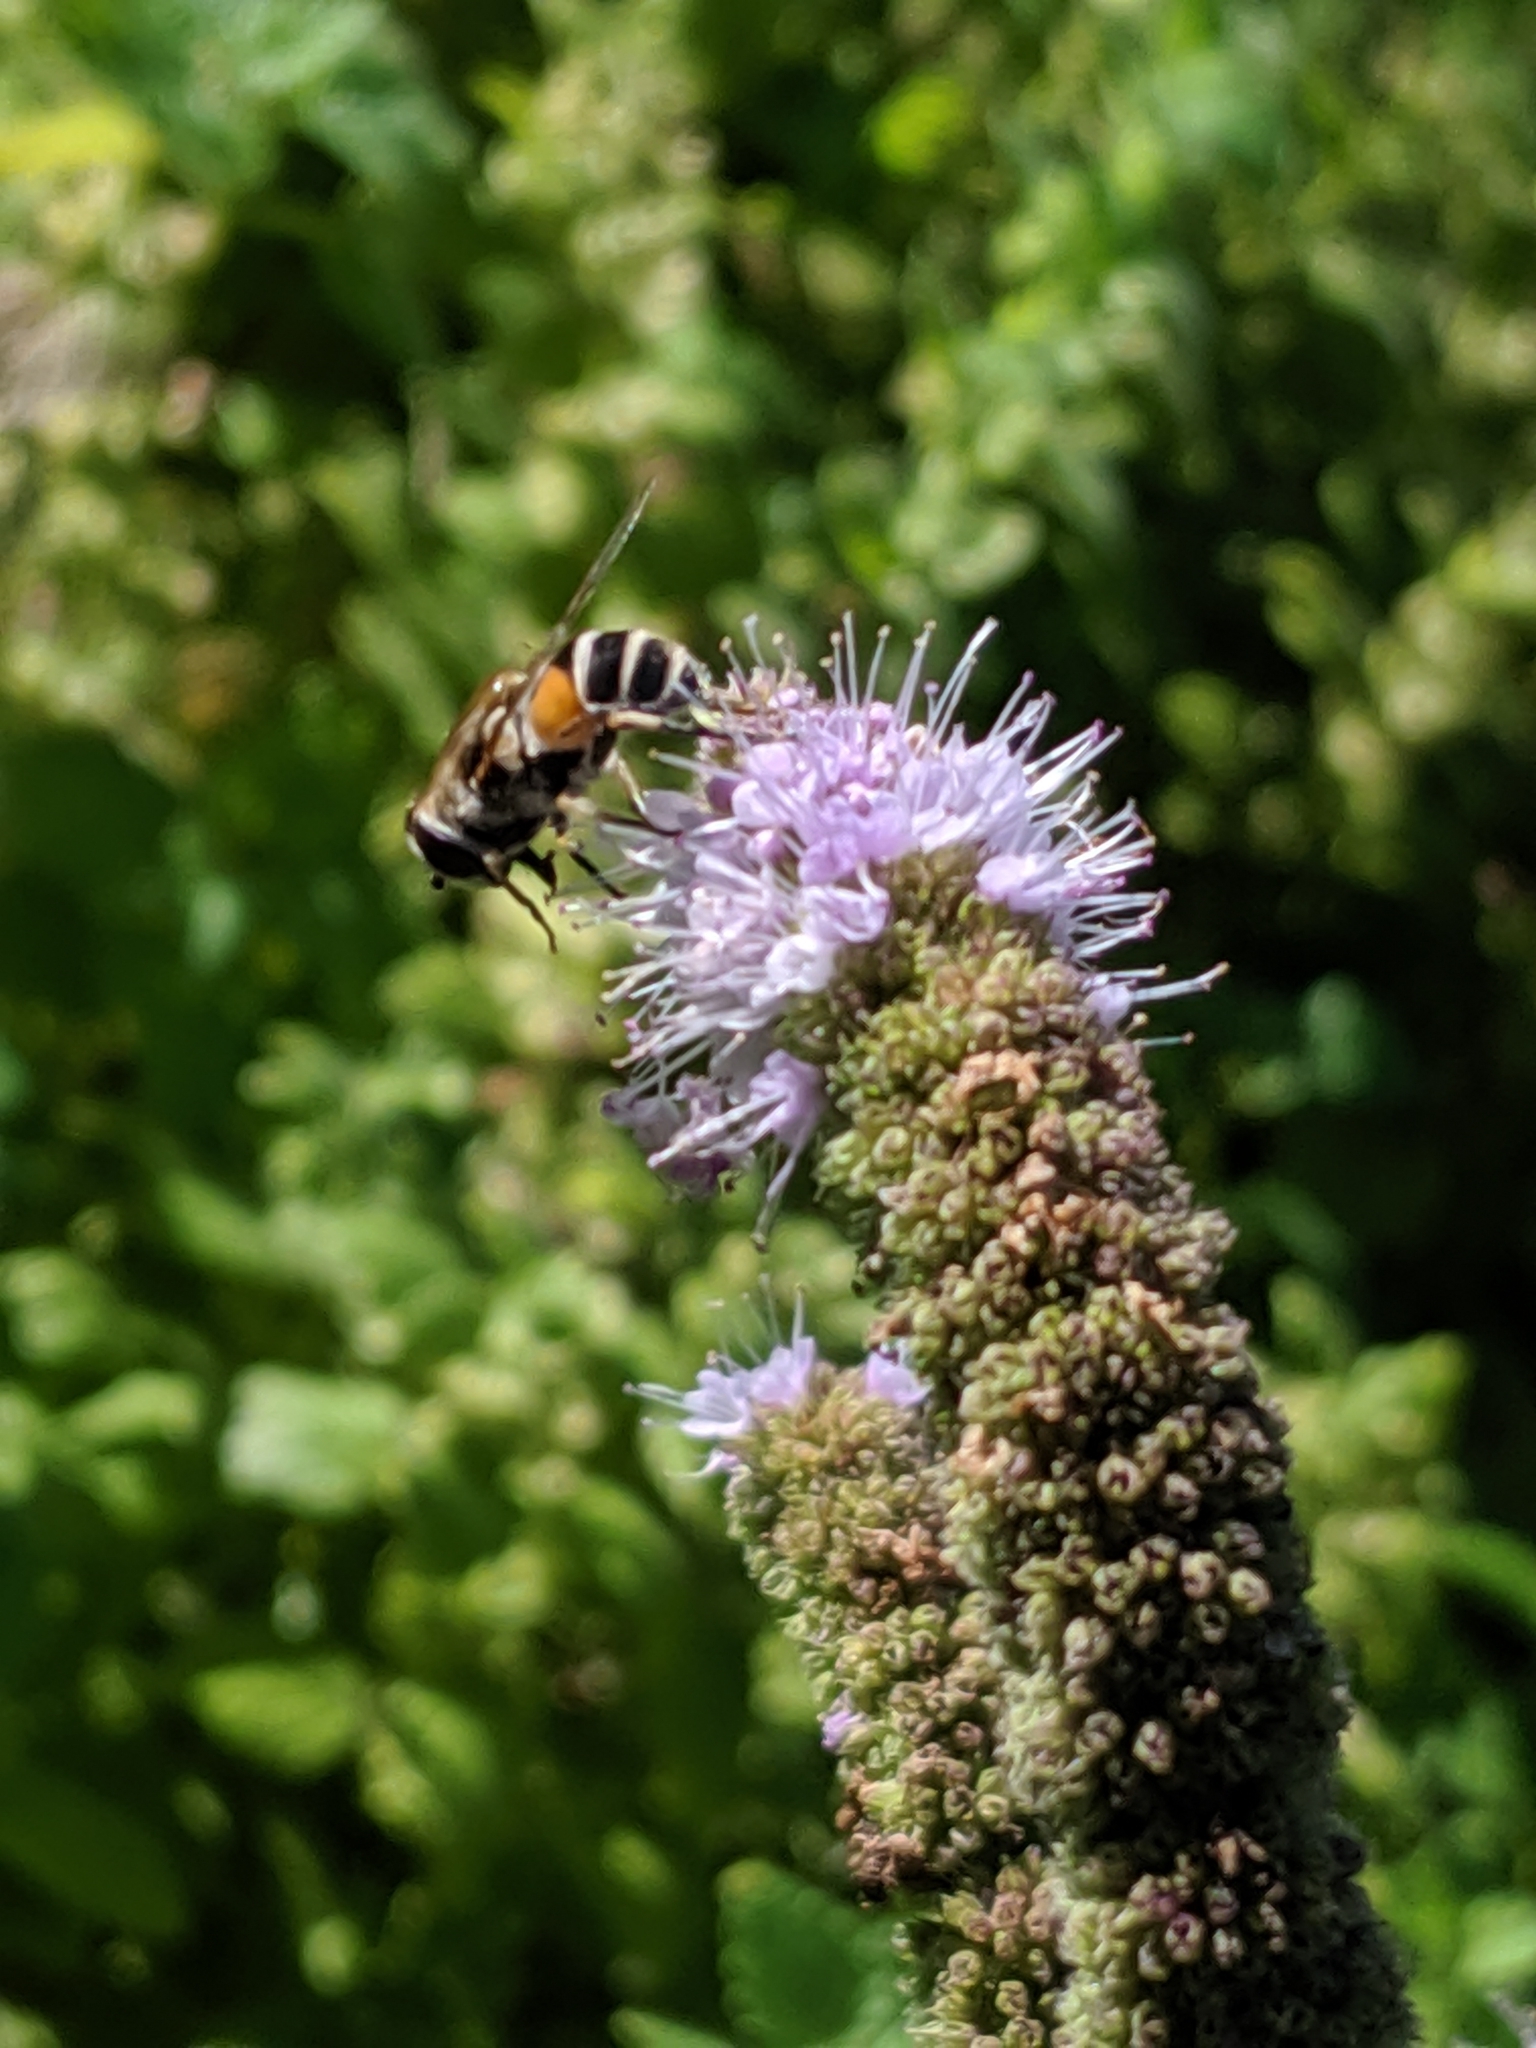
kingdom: Animalia
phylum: Arthropoda
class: Insecta
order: Diptera
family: Syrphidae
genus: Eristalis
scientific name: Eristalis arbustorum
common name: Hover fly
